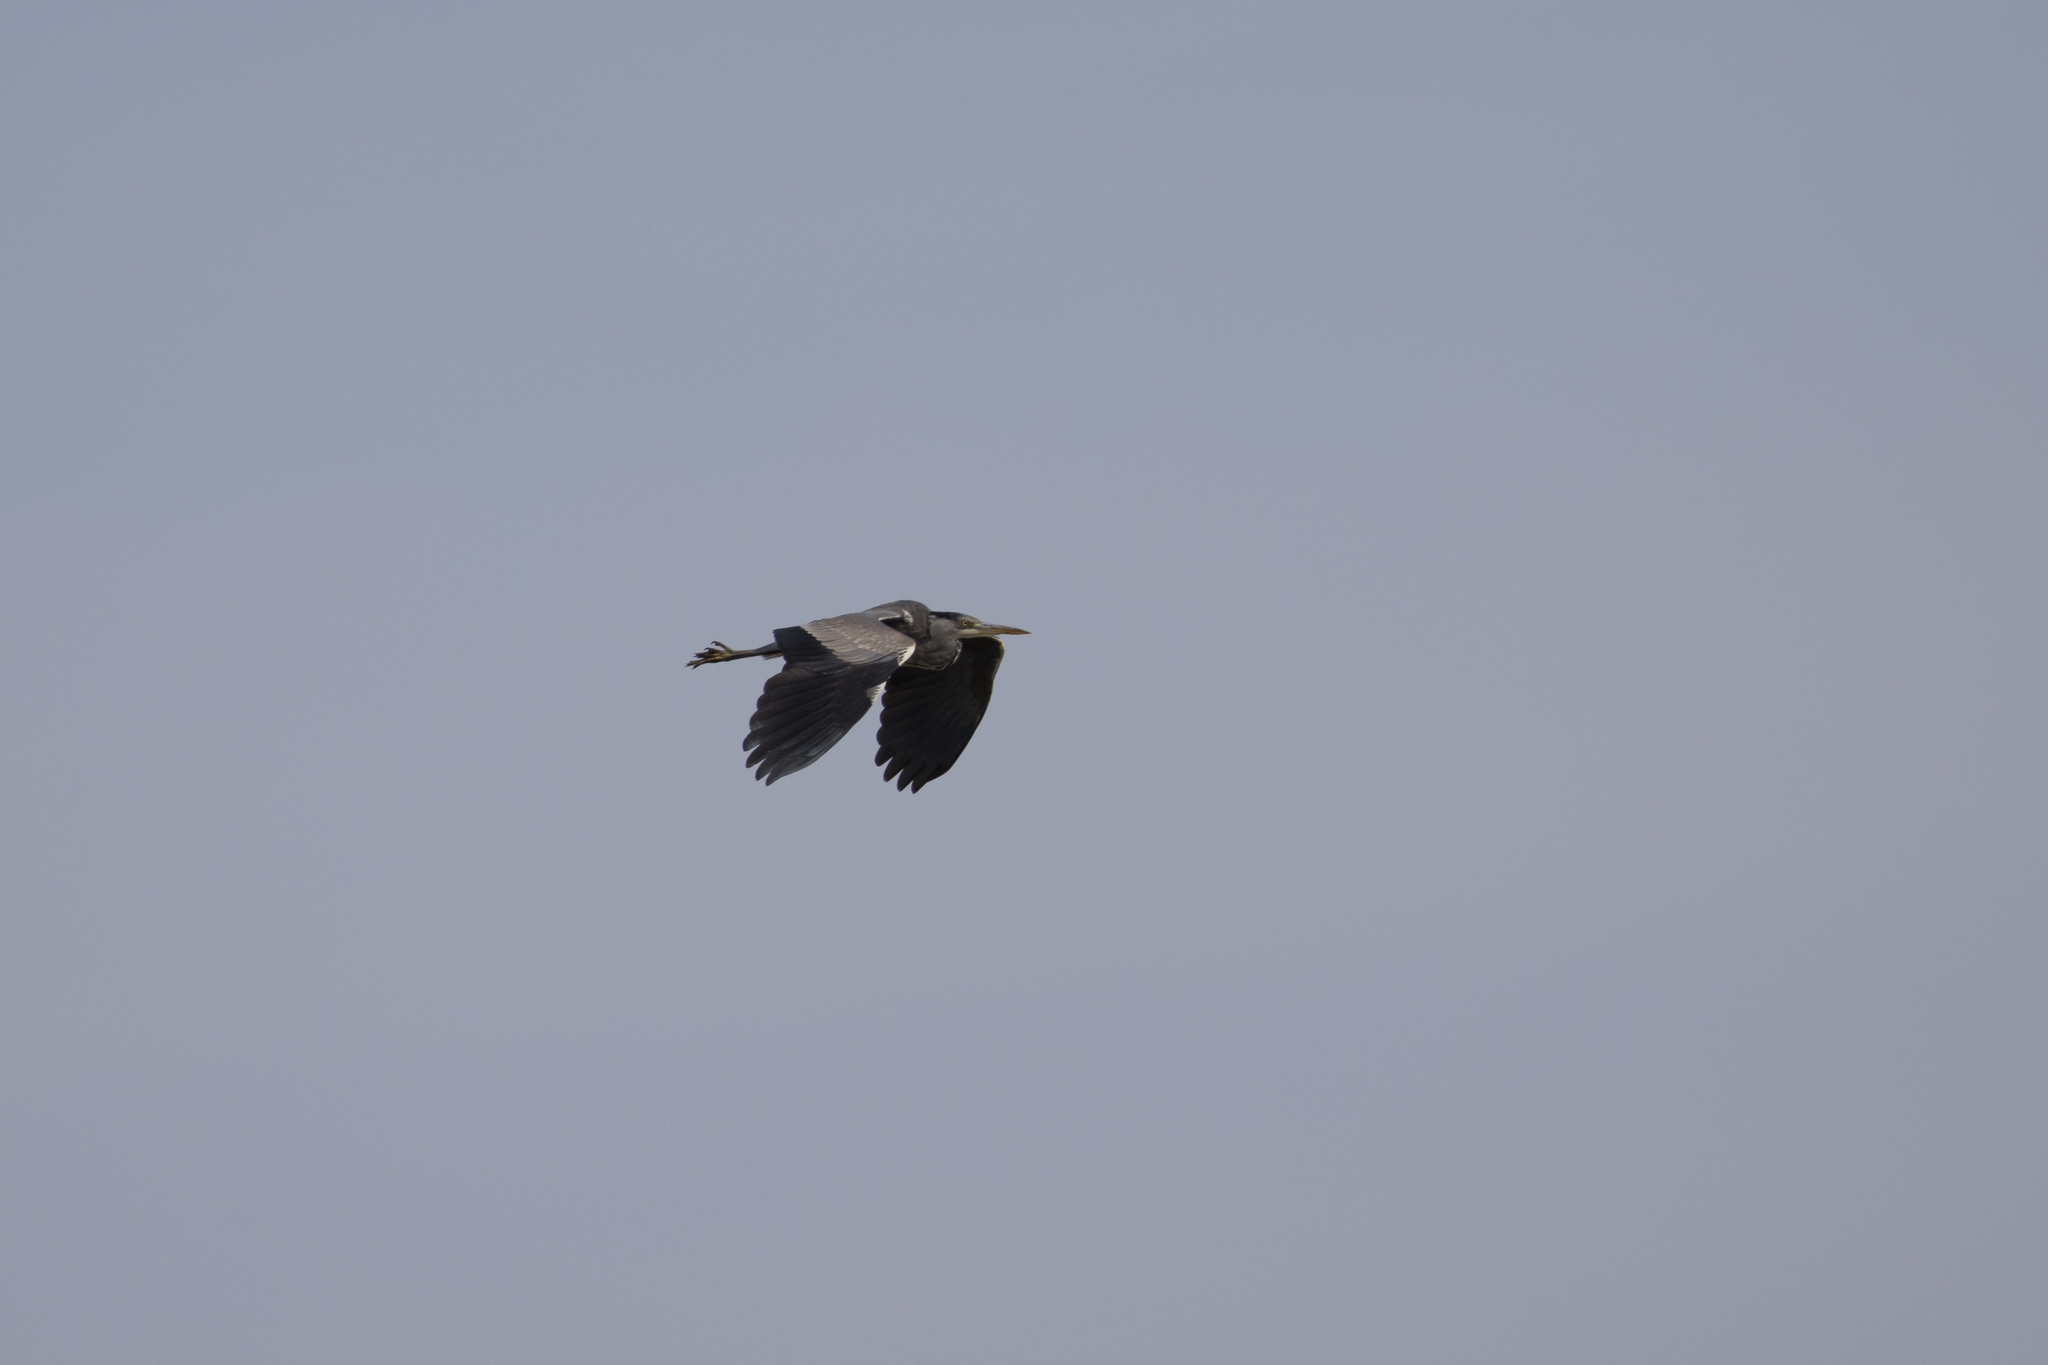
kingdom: Animalia
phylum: Chordata
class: Aves
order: Pelecaniformes
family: Ardeidae
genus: Ardea
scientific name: Ardea cinerea
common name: Grey heron
